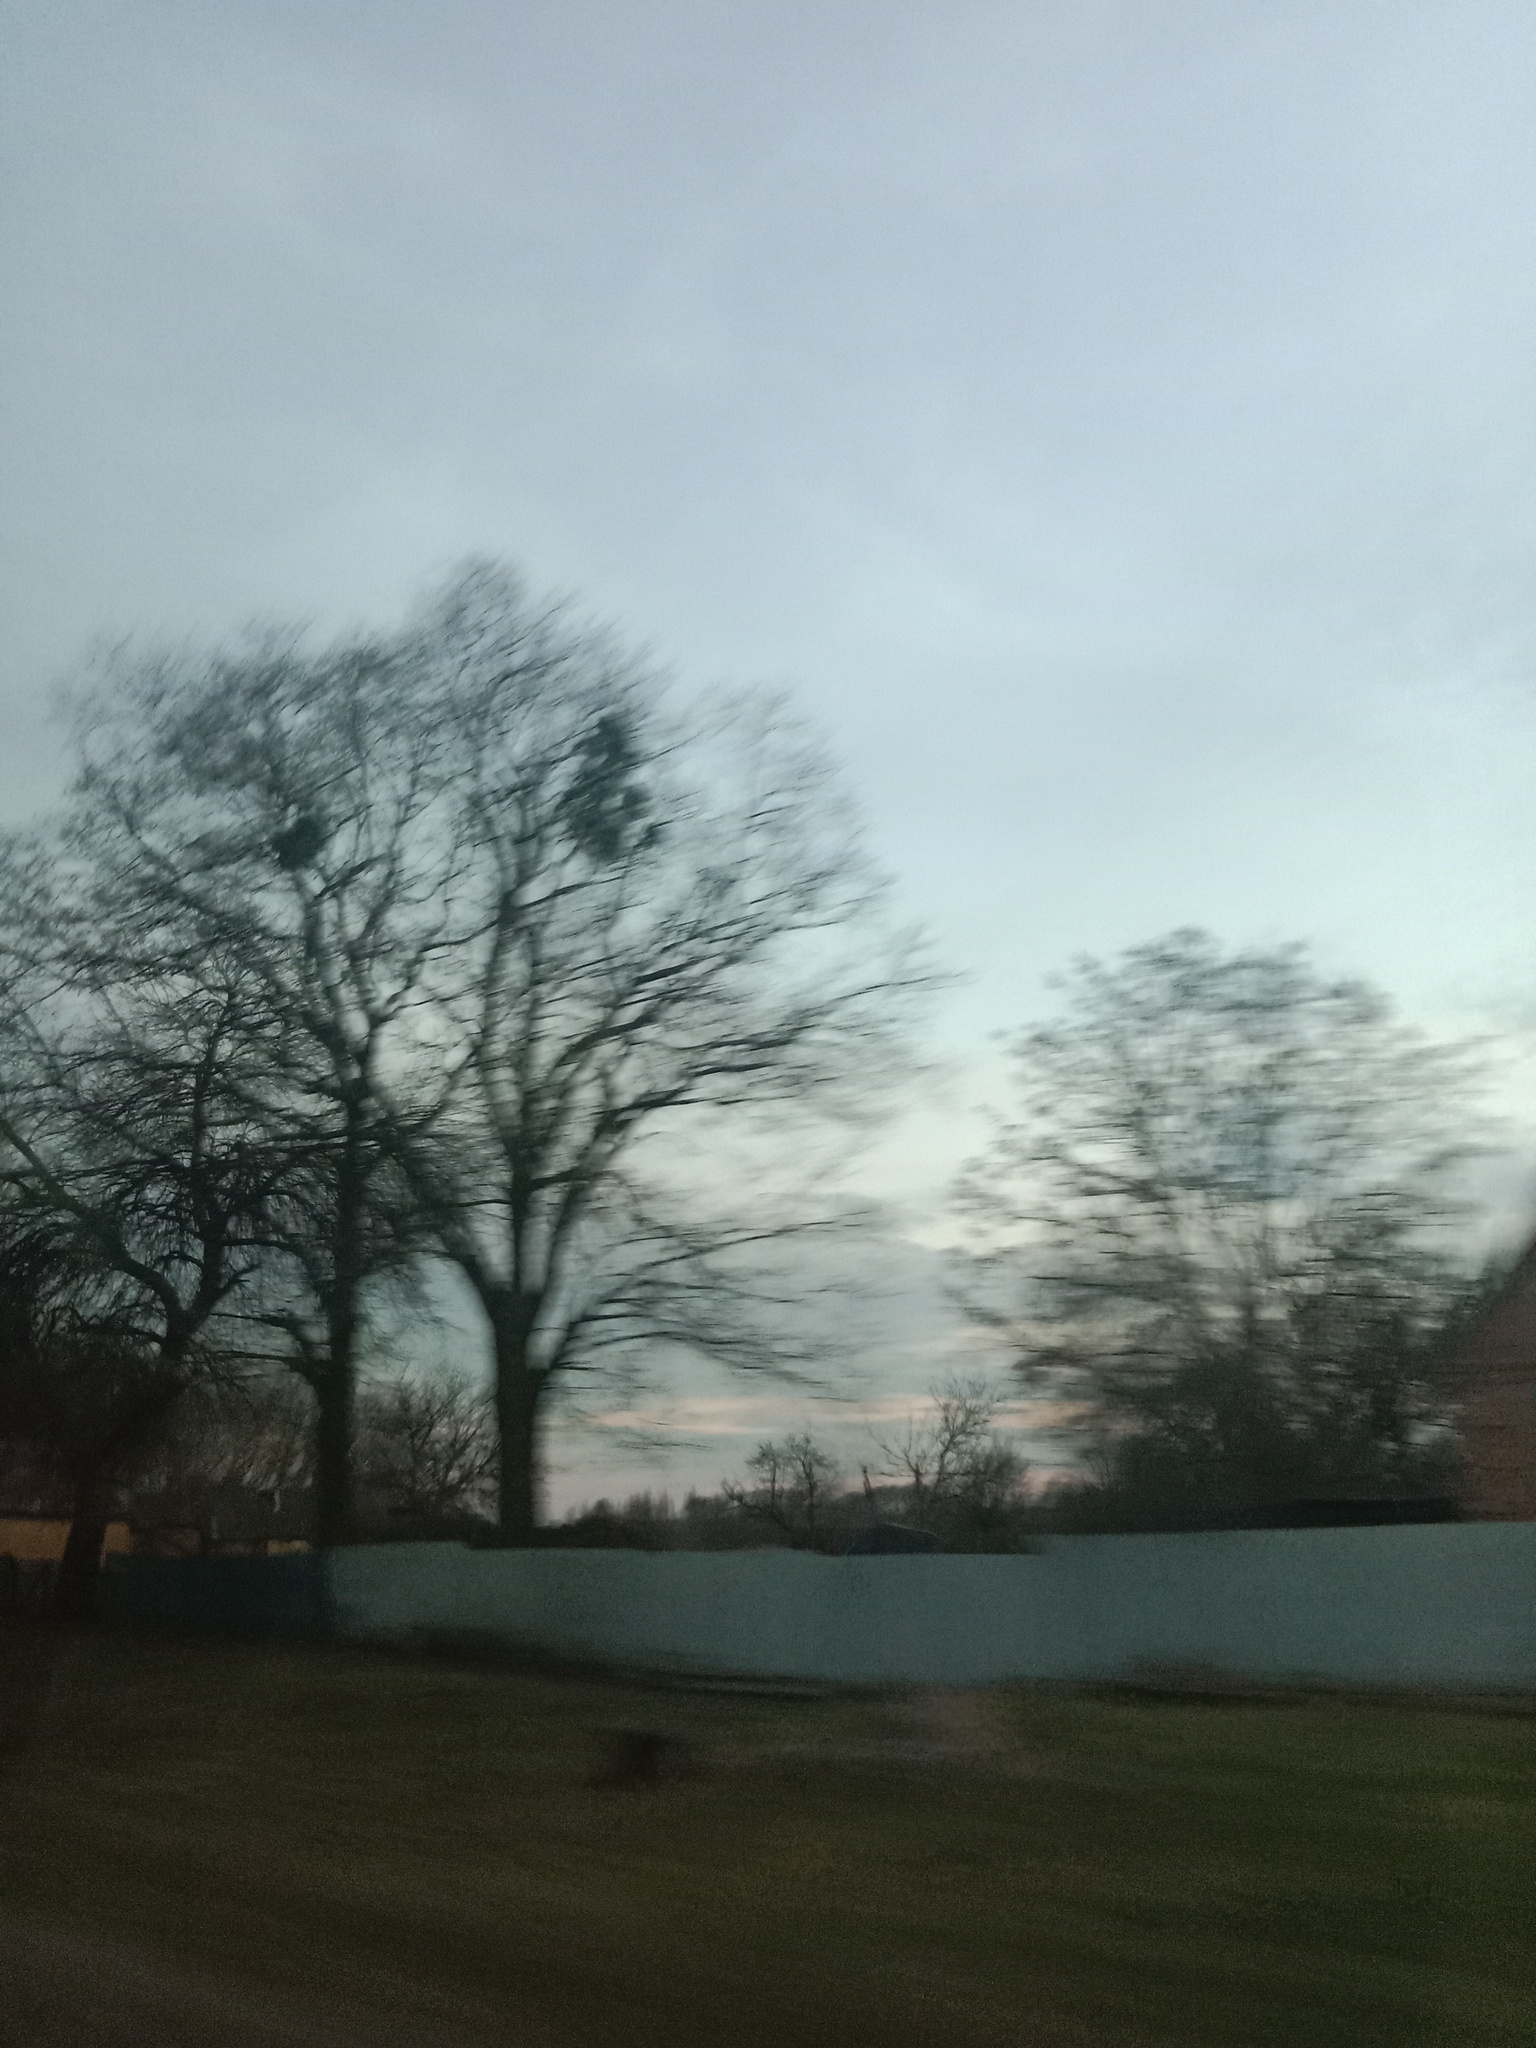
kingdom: Plantae
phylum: Tracheophyta
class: Magnoliopsida
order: Santalales
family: Viscaceae
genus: Viscum
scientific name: Viscum album
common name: Mistletoe
